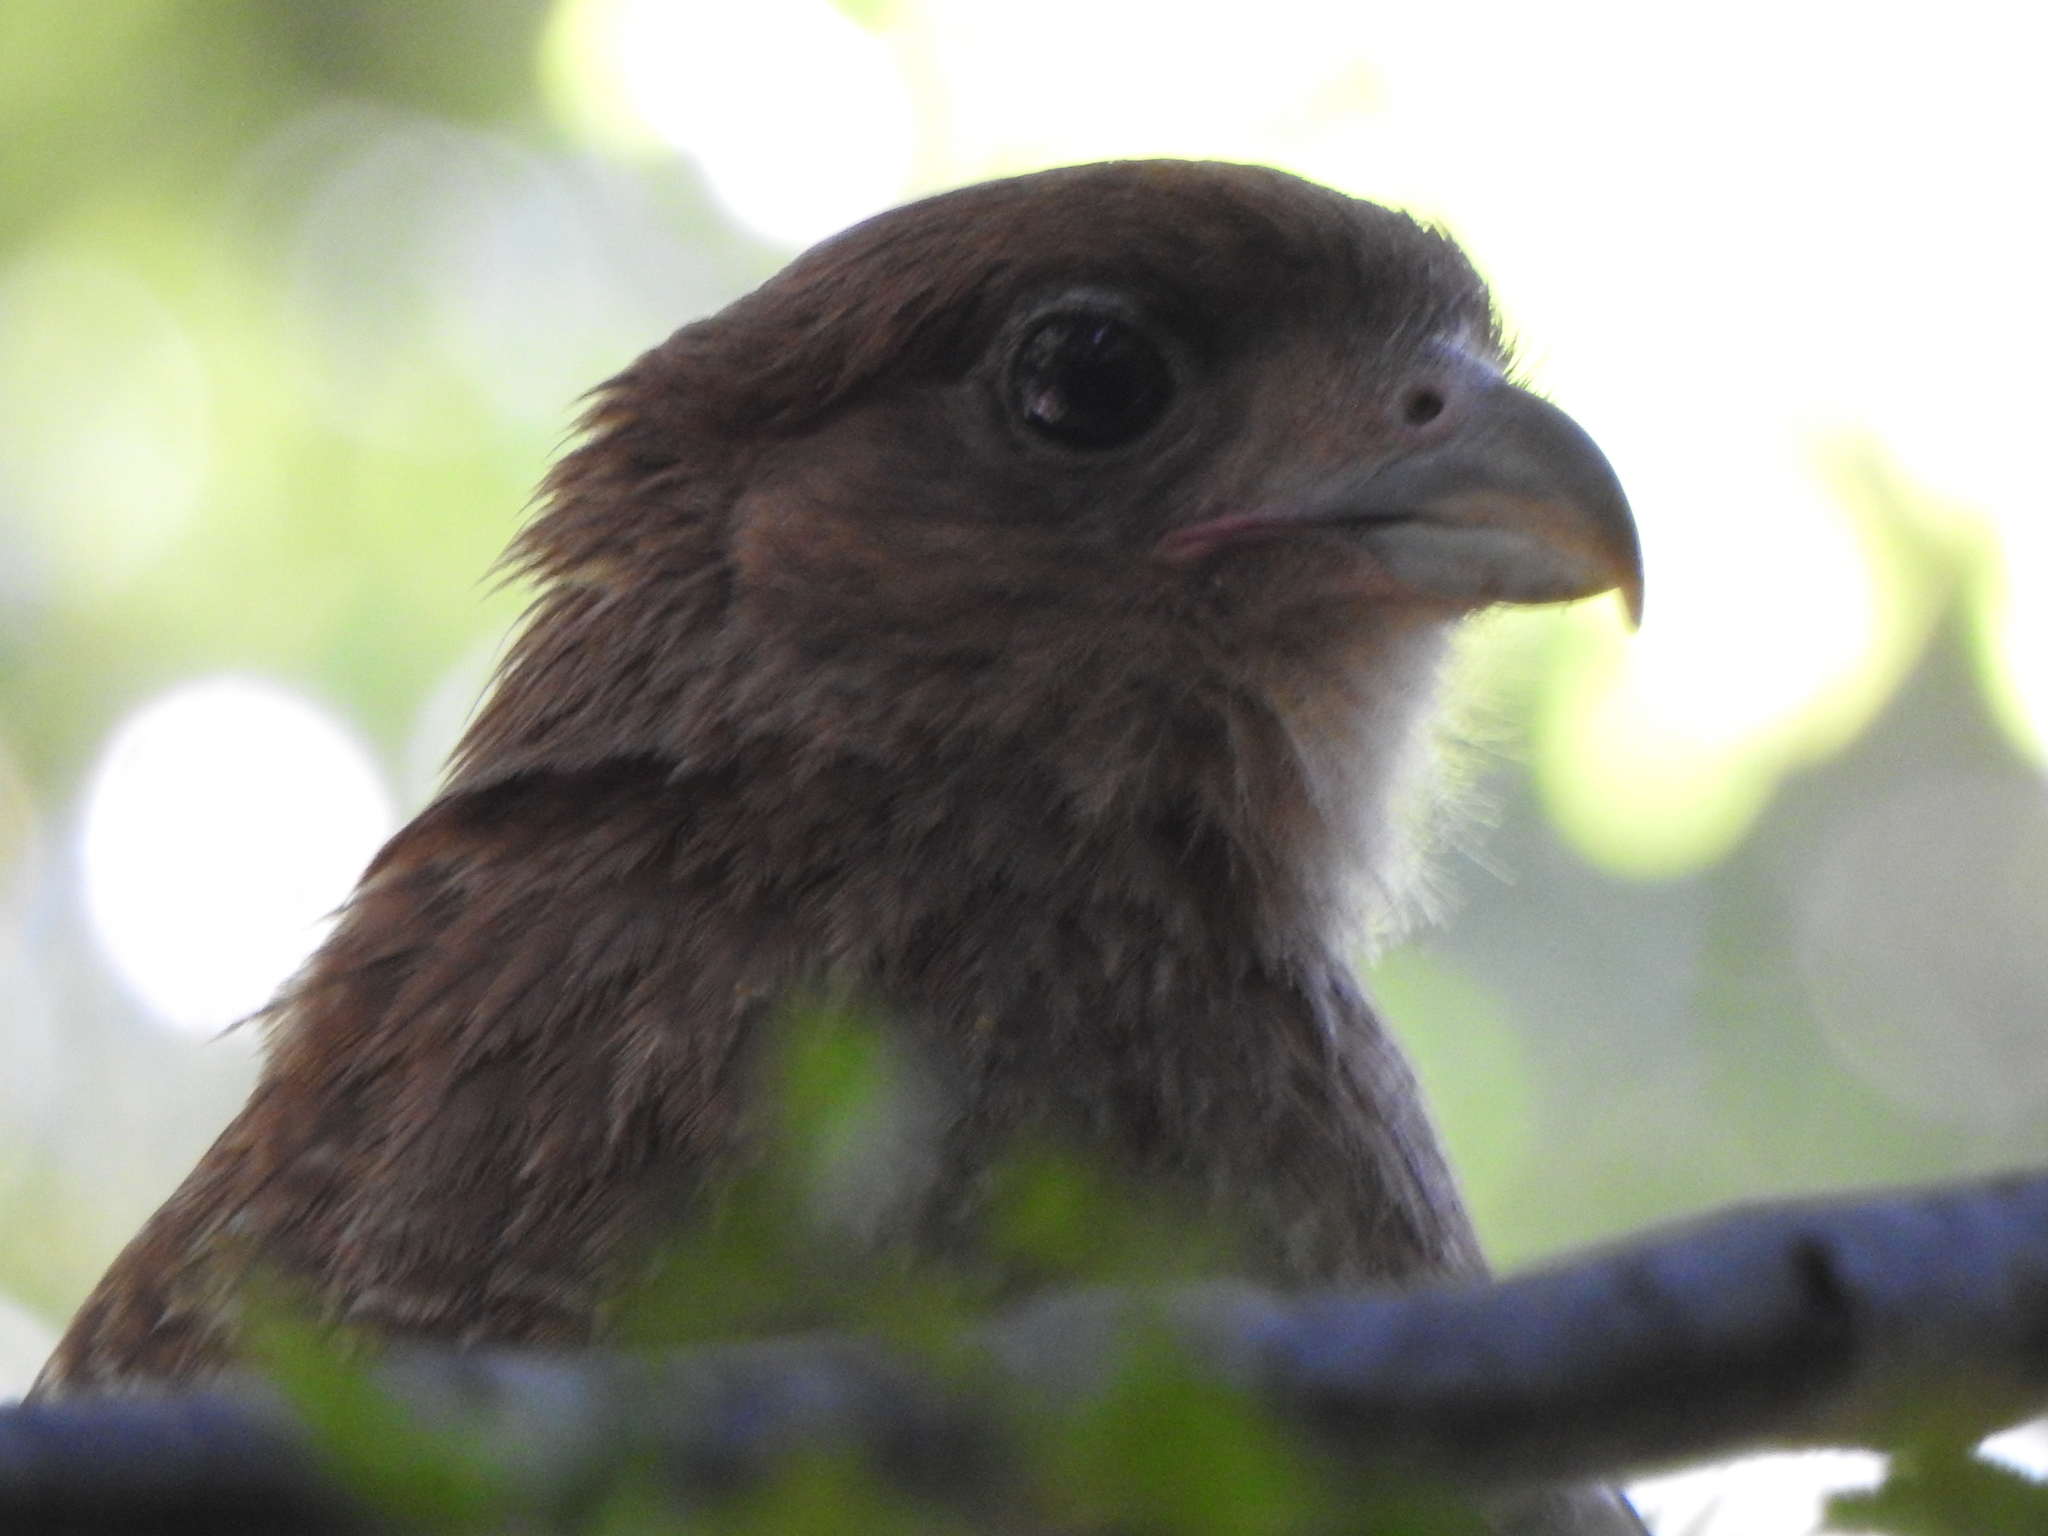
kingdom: Animalia
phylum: Chordata
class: Aves
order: Falconiformes
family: Falconidae
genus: Daptrius
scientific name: Daptrius
